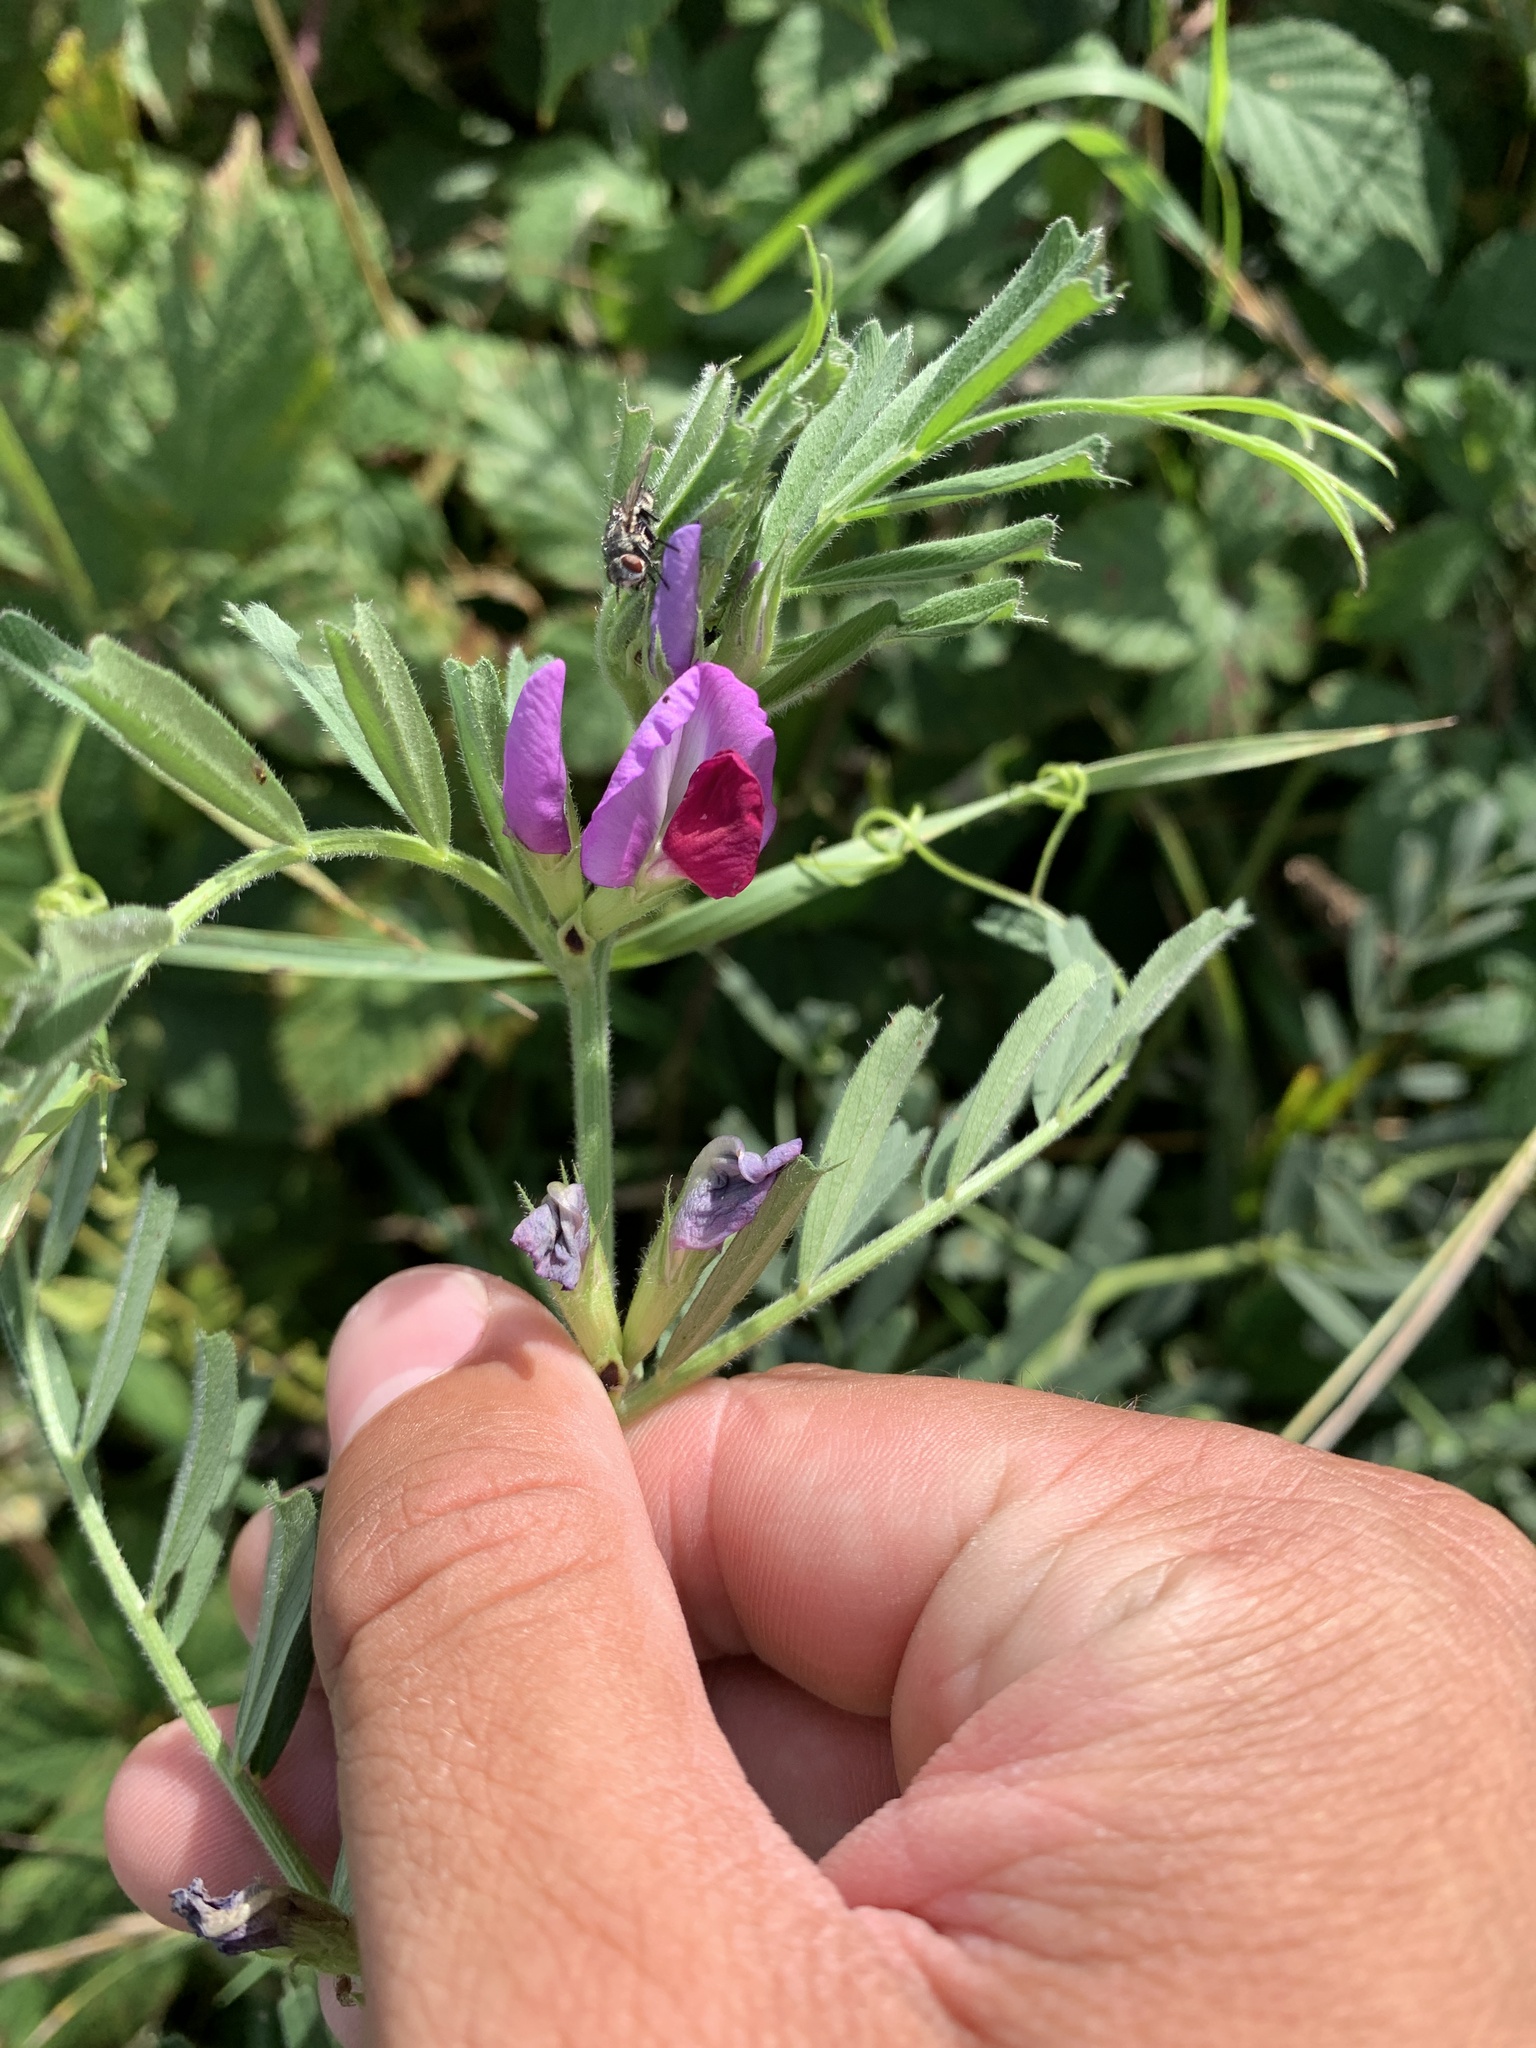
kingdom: Plantae
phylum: Tracheophyta
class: Magnoliopsida
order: Fabales
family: Fabaceae
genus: Vicia
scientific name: Vicia sativa
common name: Garden vetch
